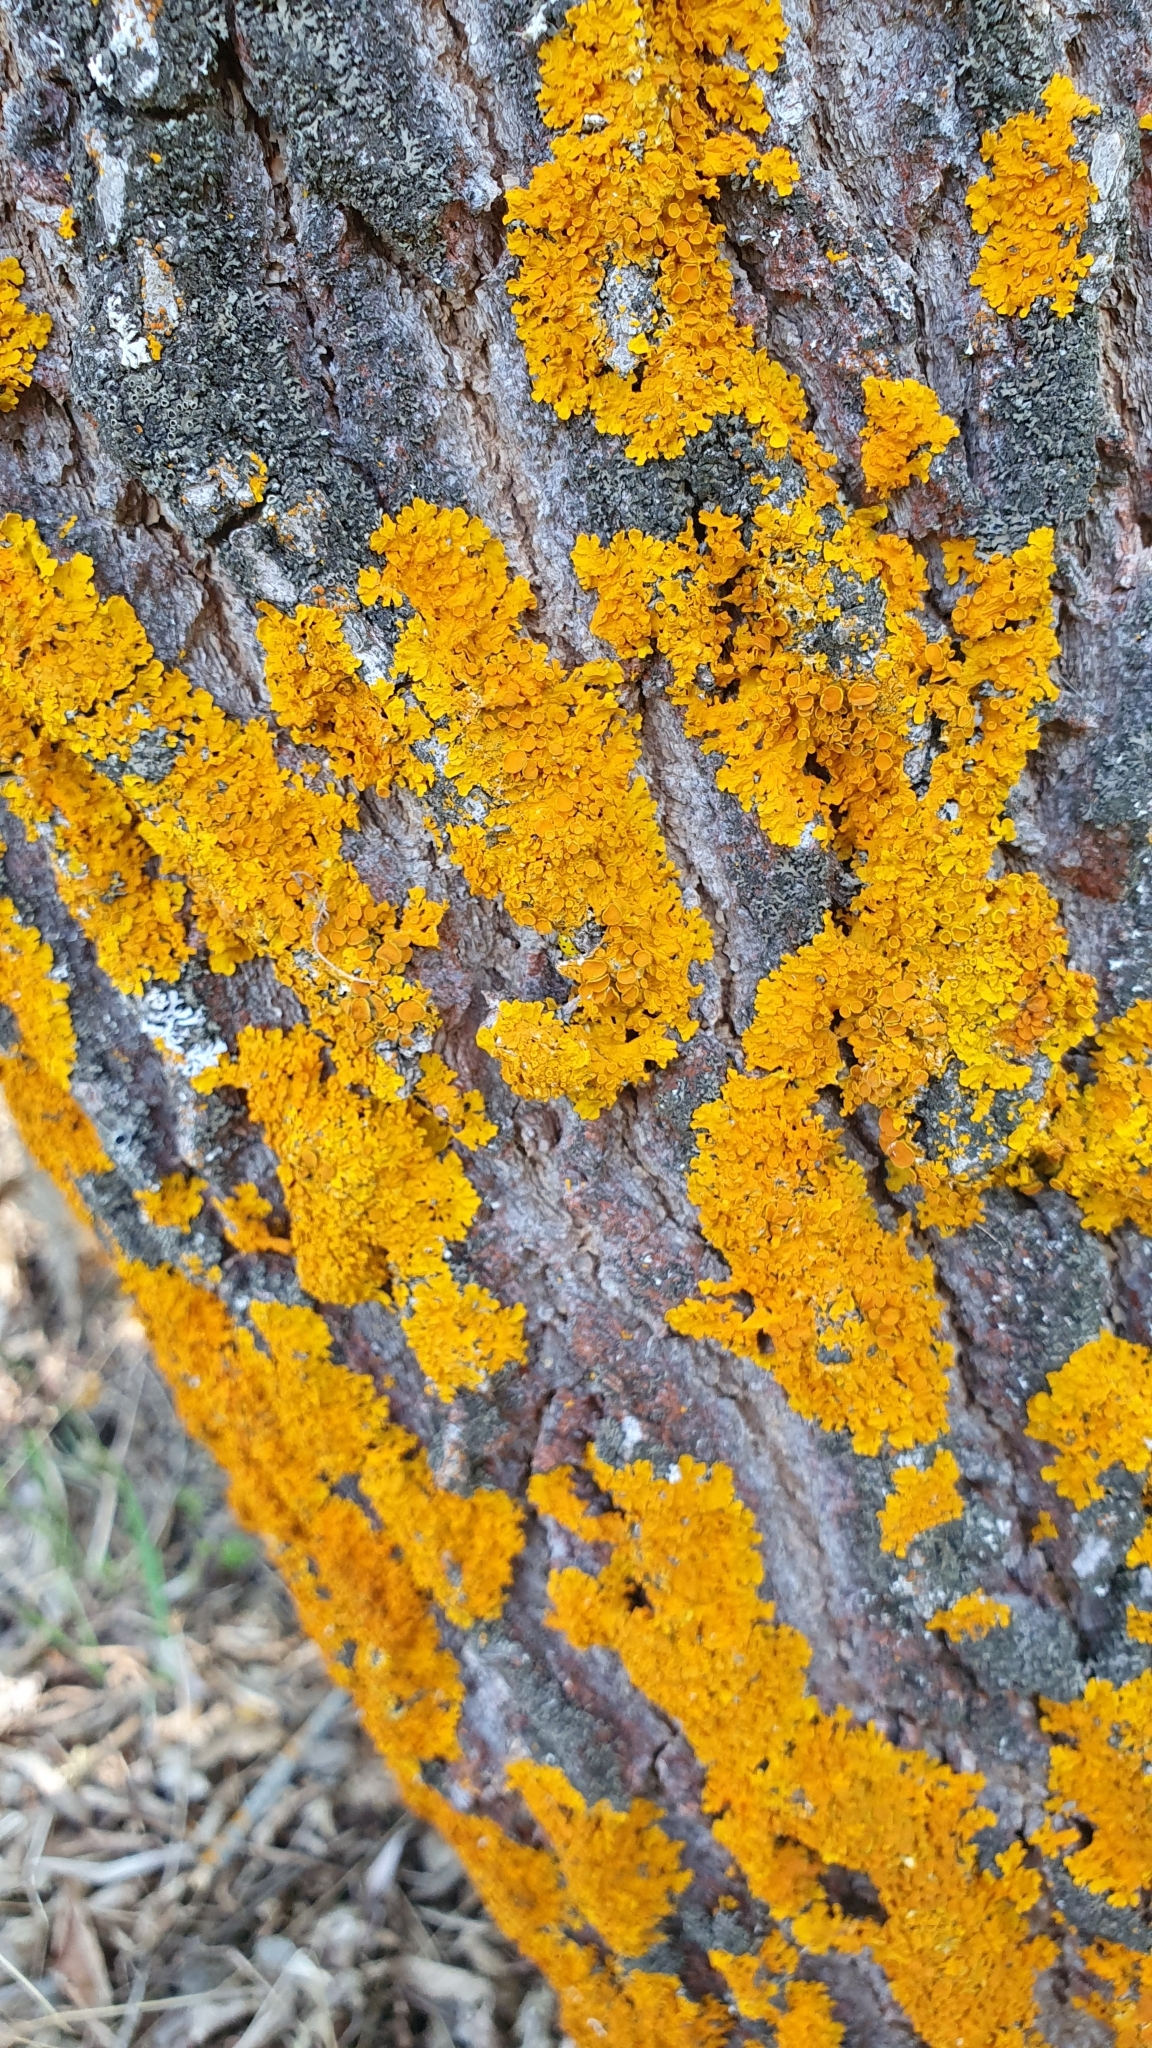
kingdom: Fungi
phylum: Ascomycota
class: Lecanoromycetes
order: Teloschistales
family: Teloschistaceae
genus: Xanthoria
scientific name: Xanthoria parietina
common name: Common orange lichen
